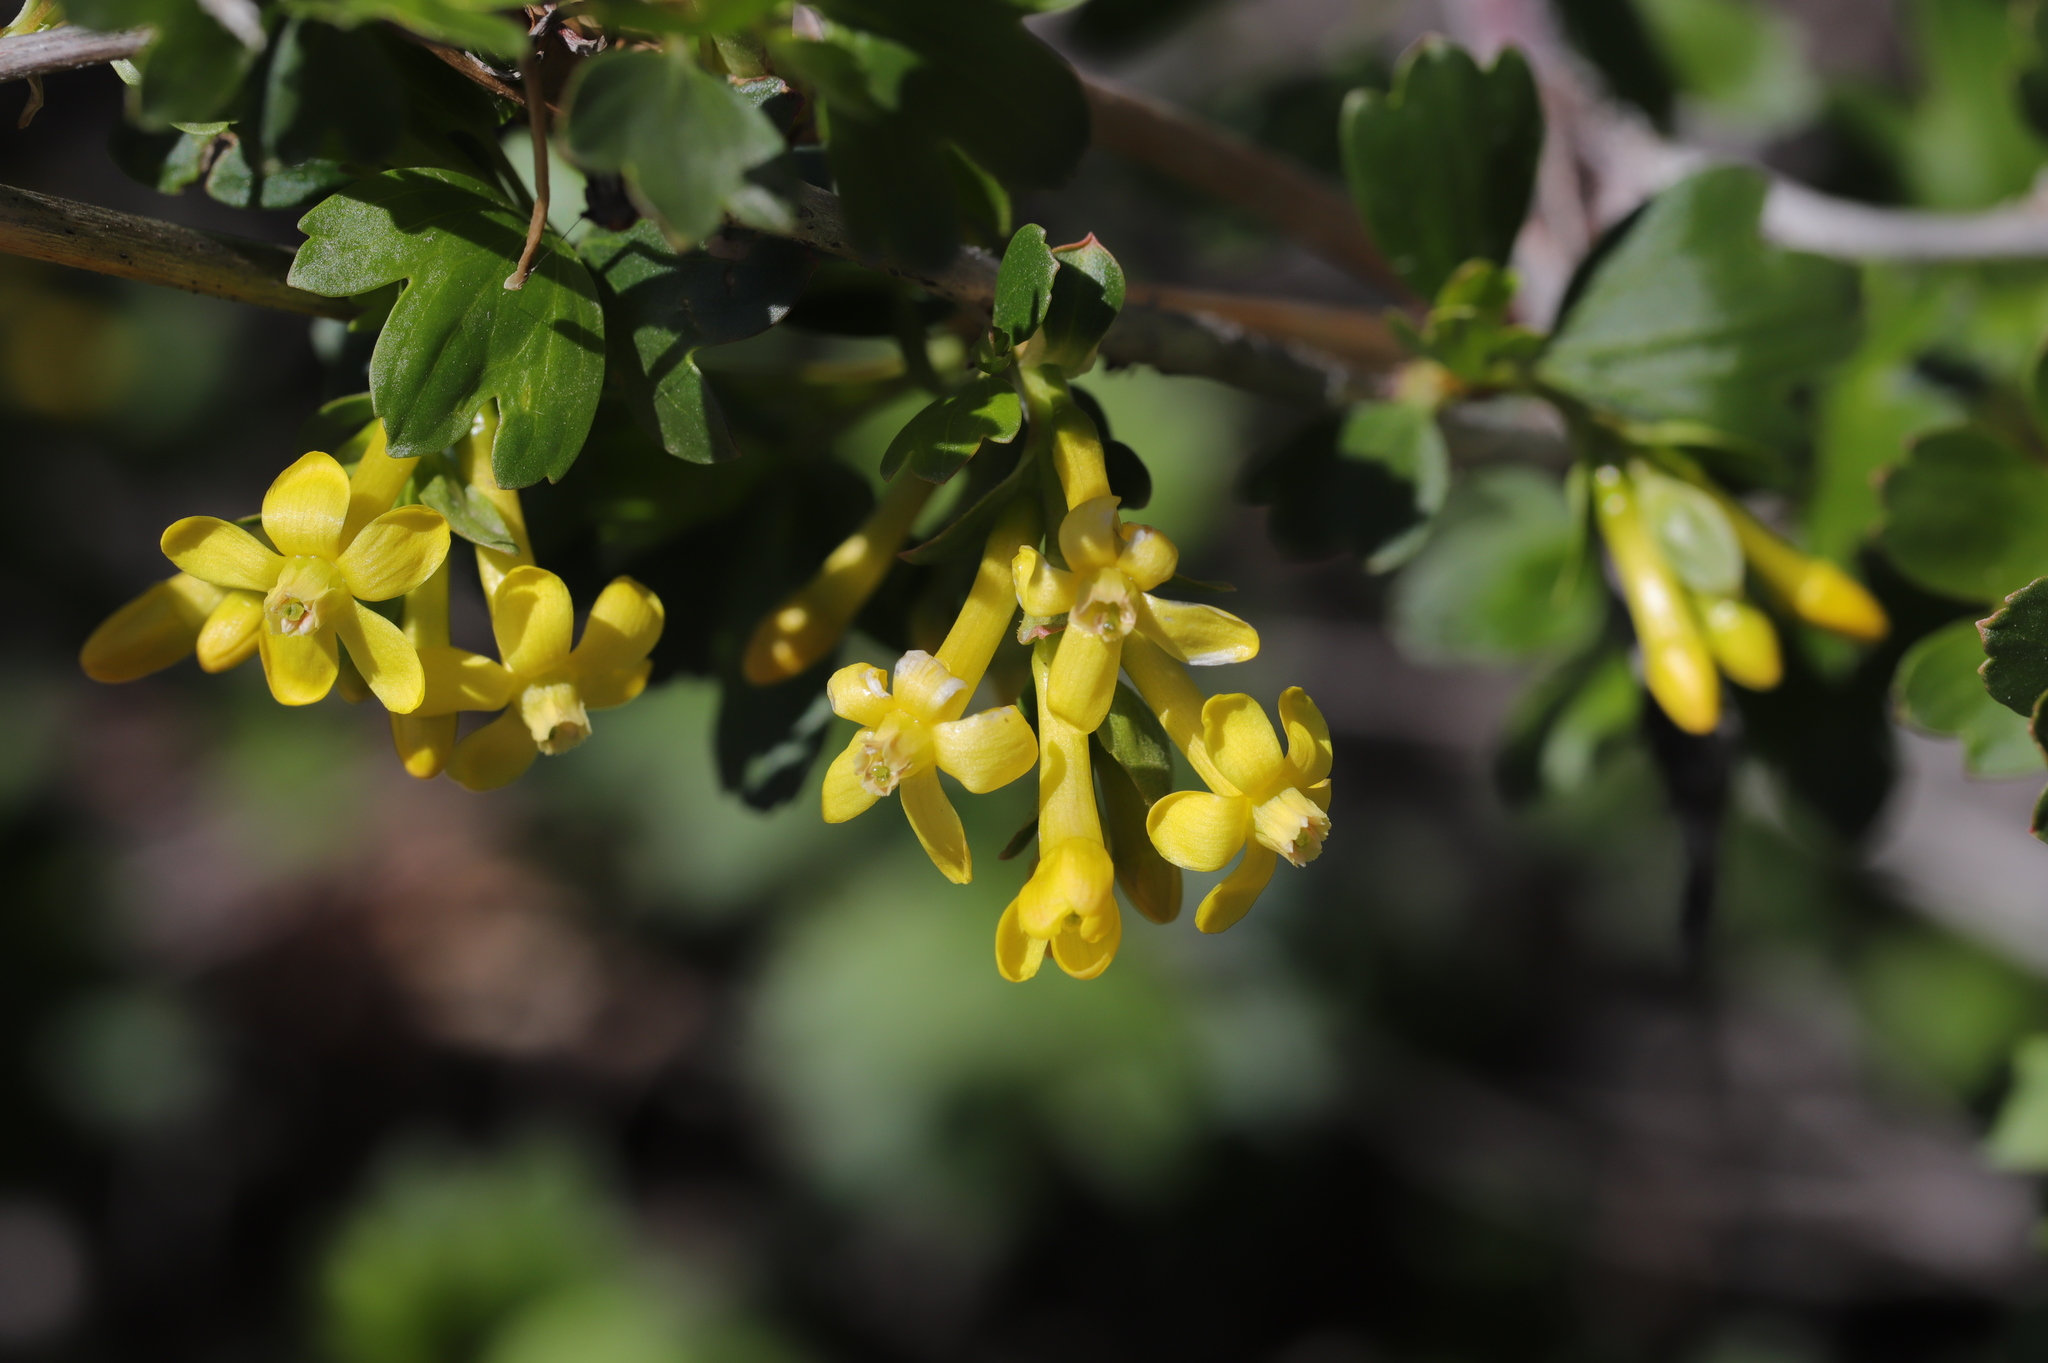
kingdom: Plantae
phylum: Tracheophyta
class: Magnoliopsida
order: Saxifragales
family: Grossulariaceae
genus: Ribes
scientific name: Ribes aureum
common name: Golden currant
